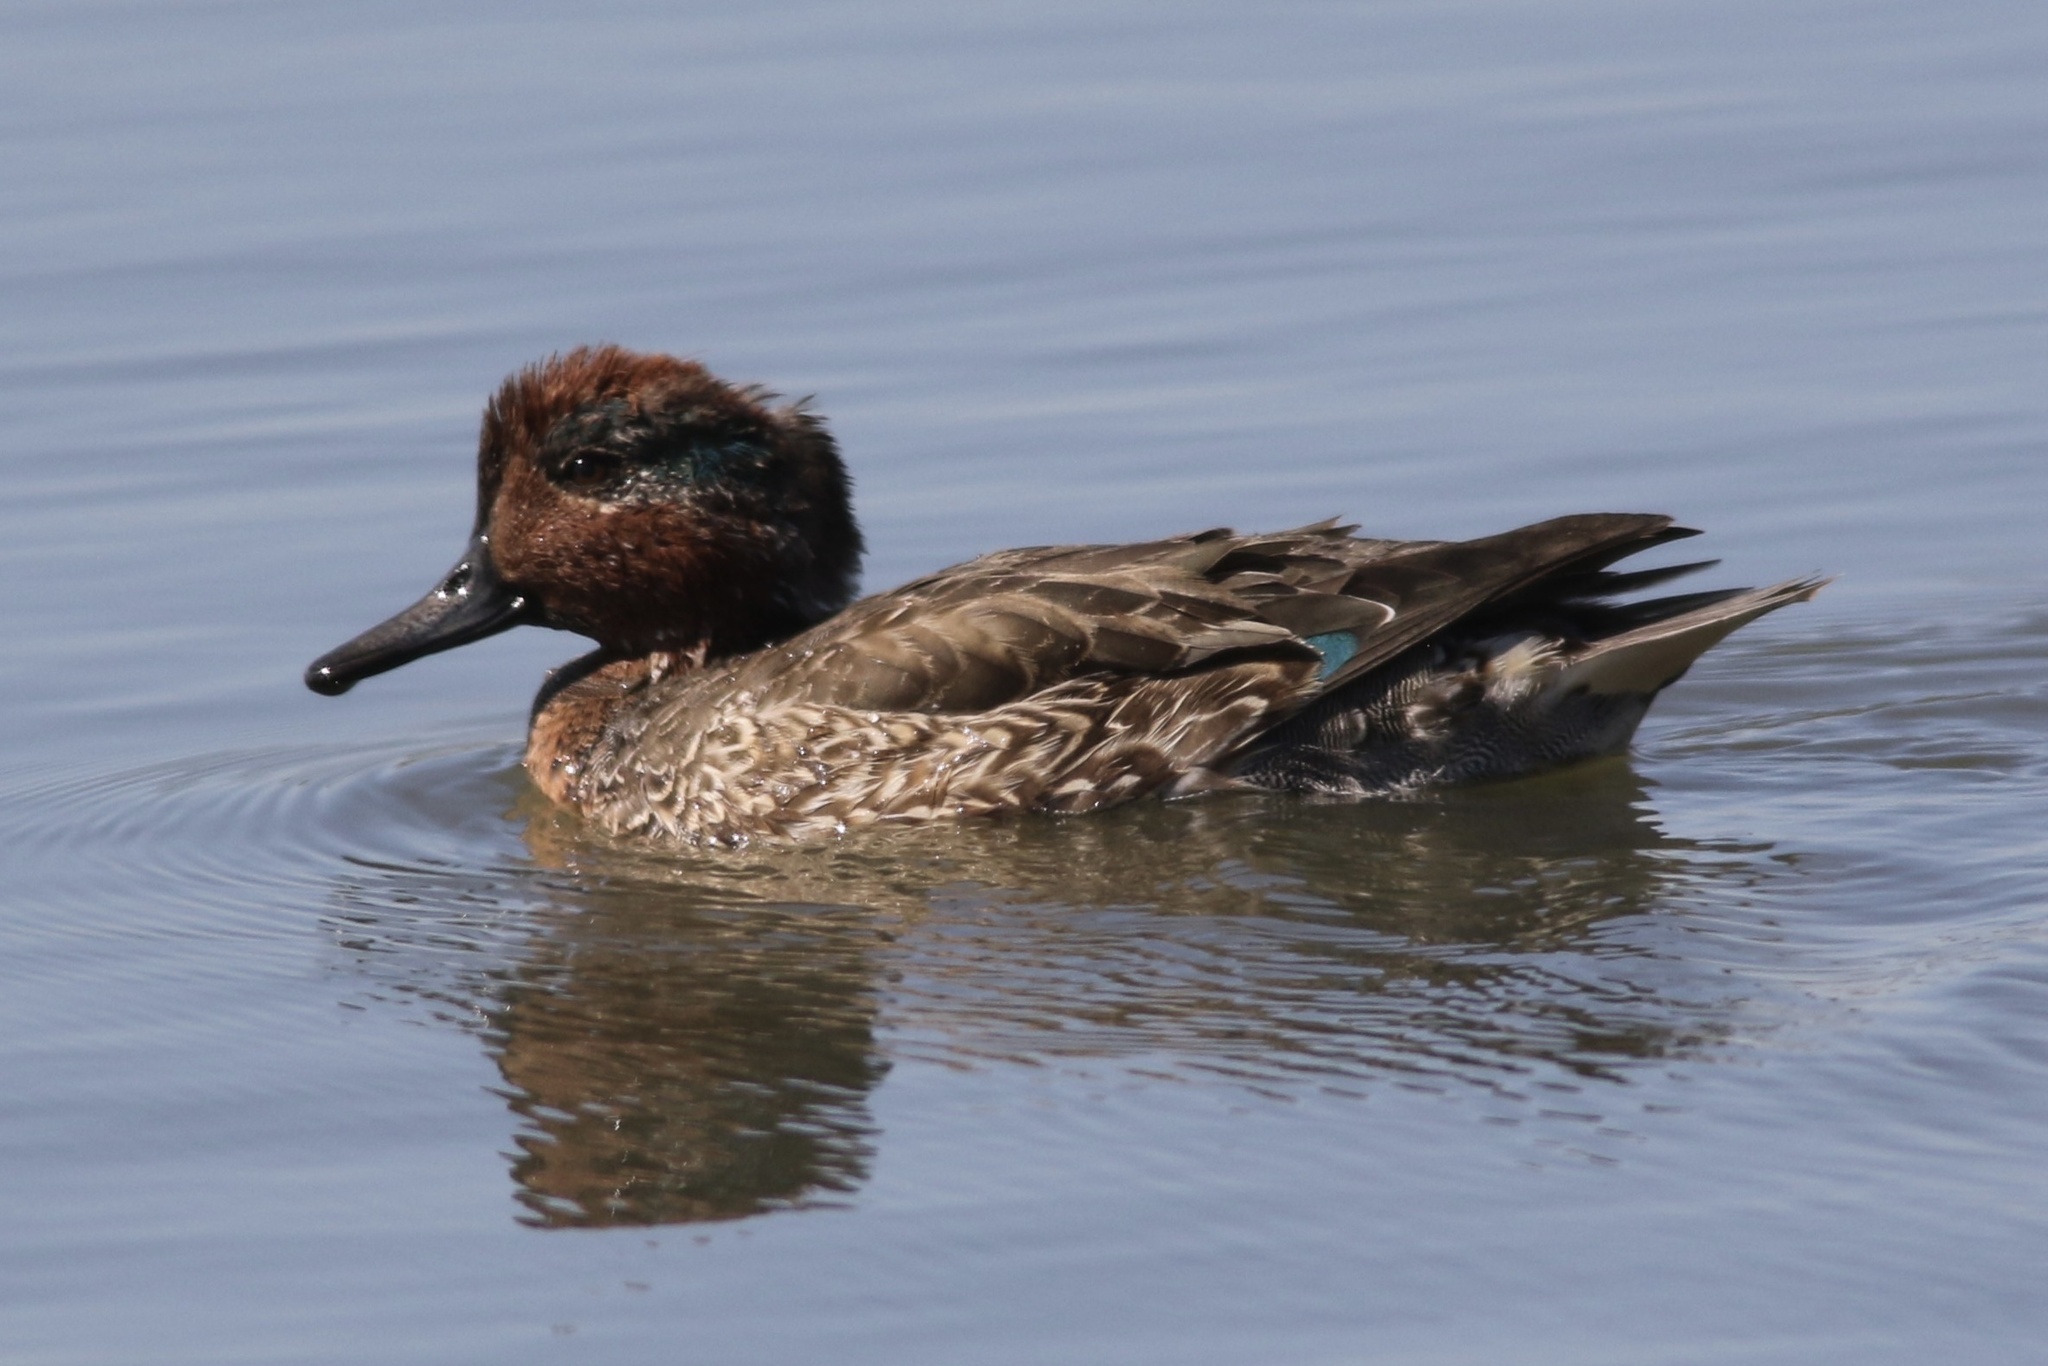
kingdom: Animalia
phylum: Chordata
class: Aves
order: Anseriformes
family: Anatidae
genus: Anas
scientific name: Anas crecca
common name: Eurasian teal
